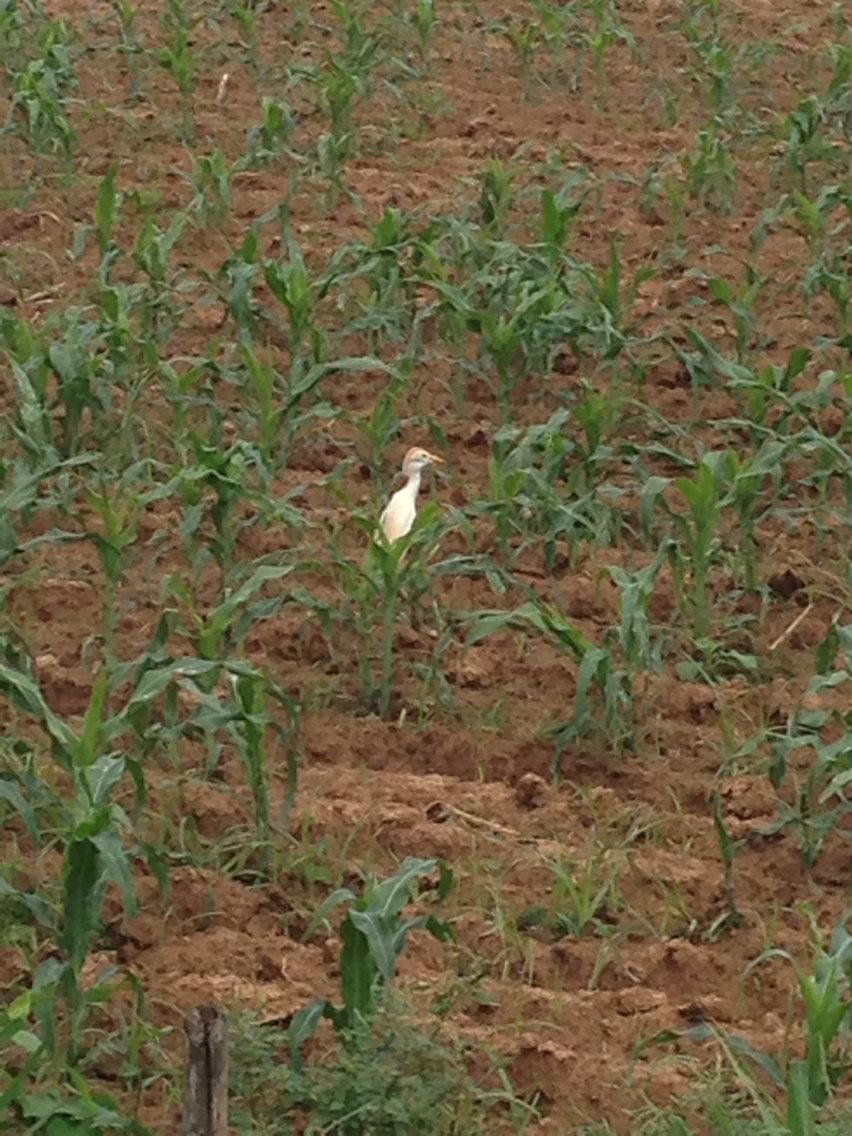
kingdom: Animalia
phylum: Chordata
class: Aves
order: Pelecaniformes
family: Ardeidae
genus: Bubulcus
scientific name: Bubulcus ibis
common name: Cattle egret
